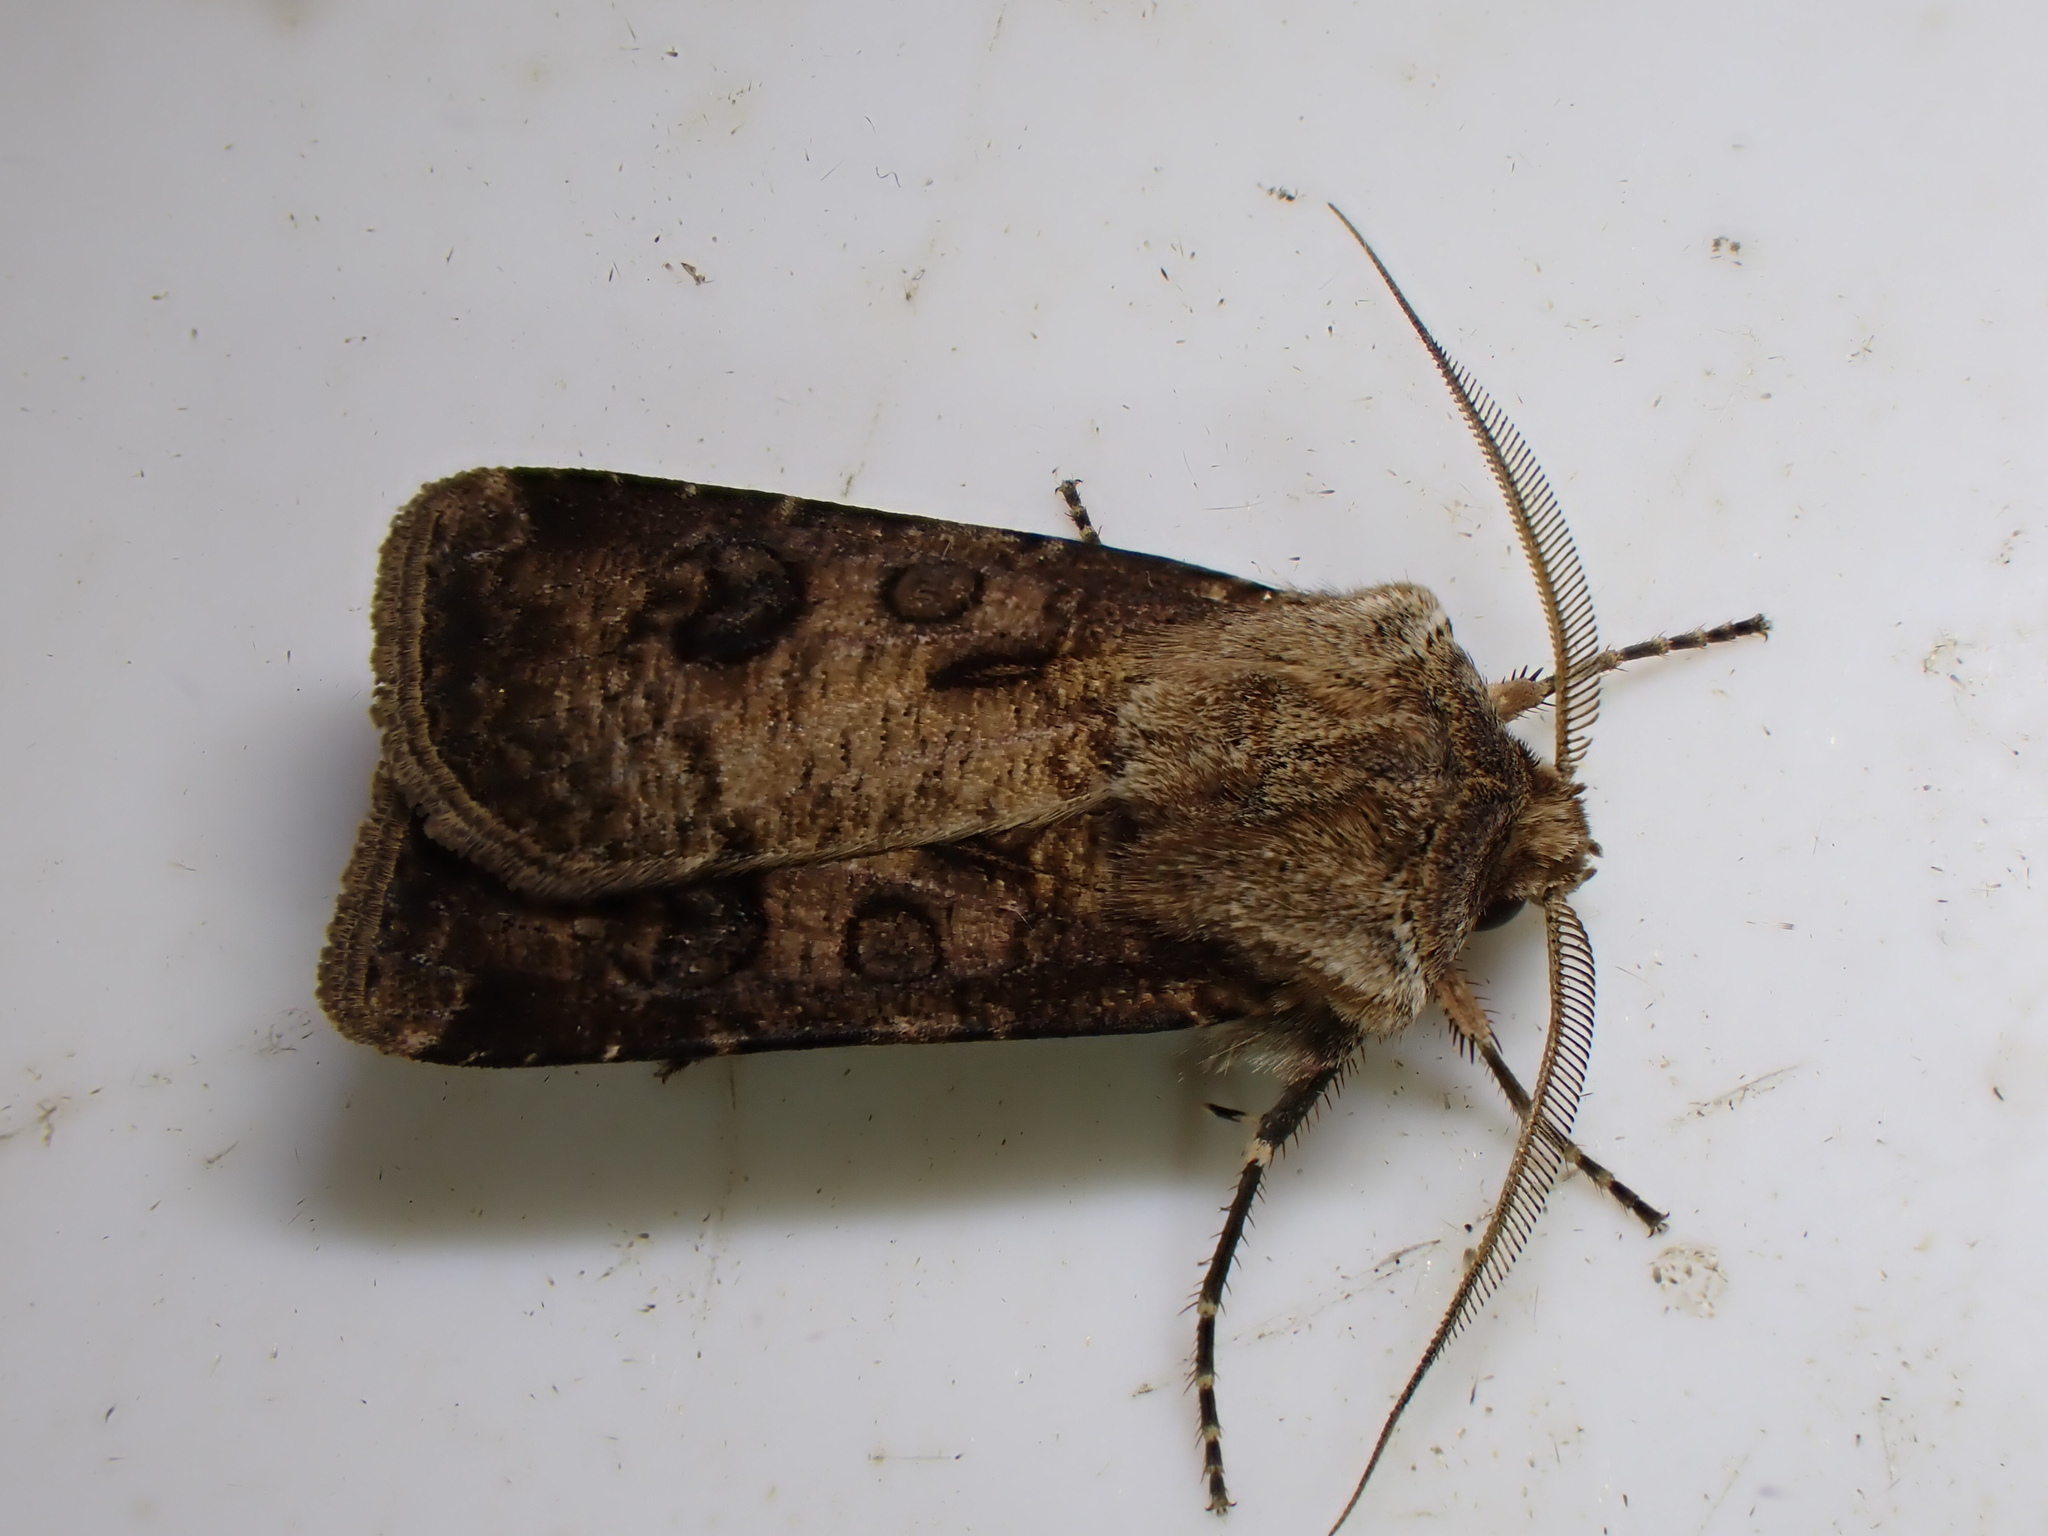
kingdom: Animalia
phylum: Arthropoda
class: Insecta
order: Lepidoptera
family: Noctuidae
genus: Agrotis
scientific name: Agrotis clavis
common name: Heart and club
